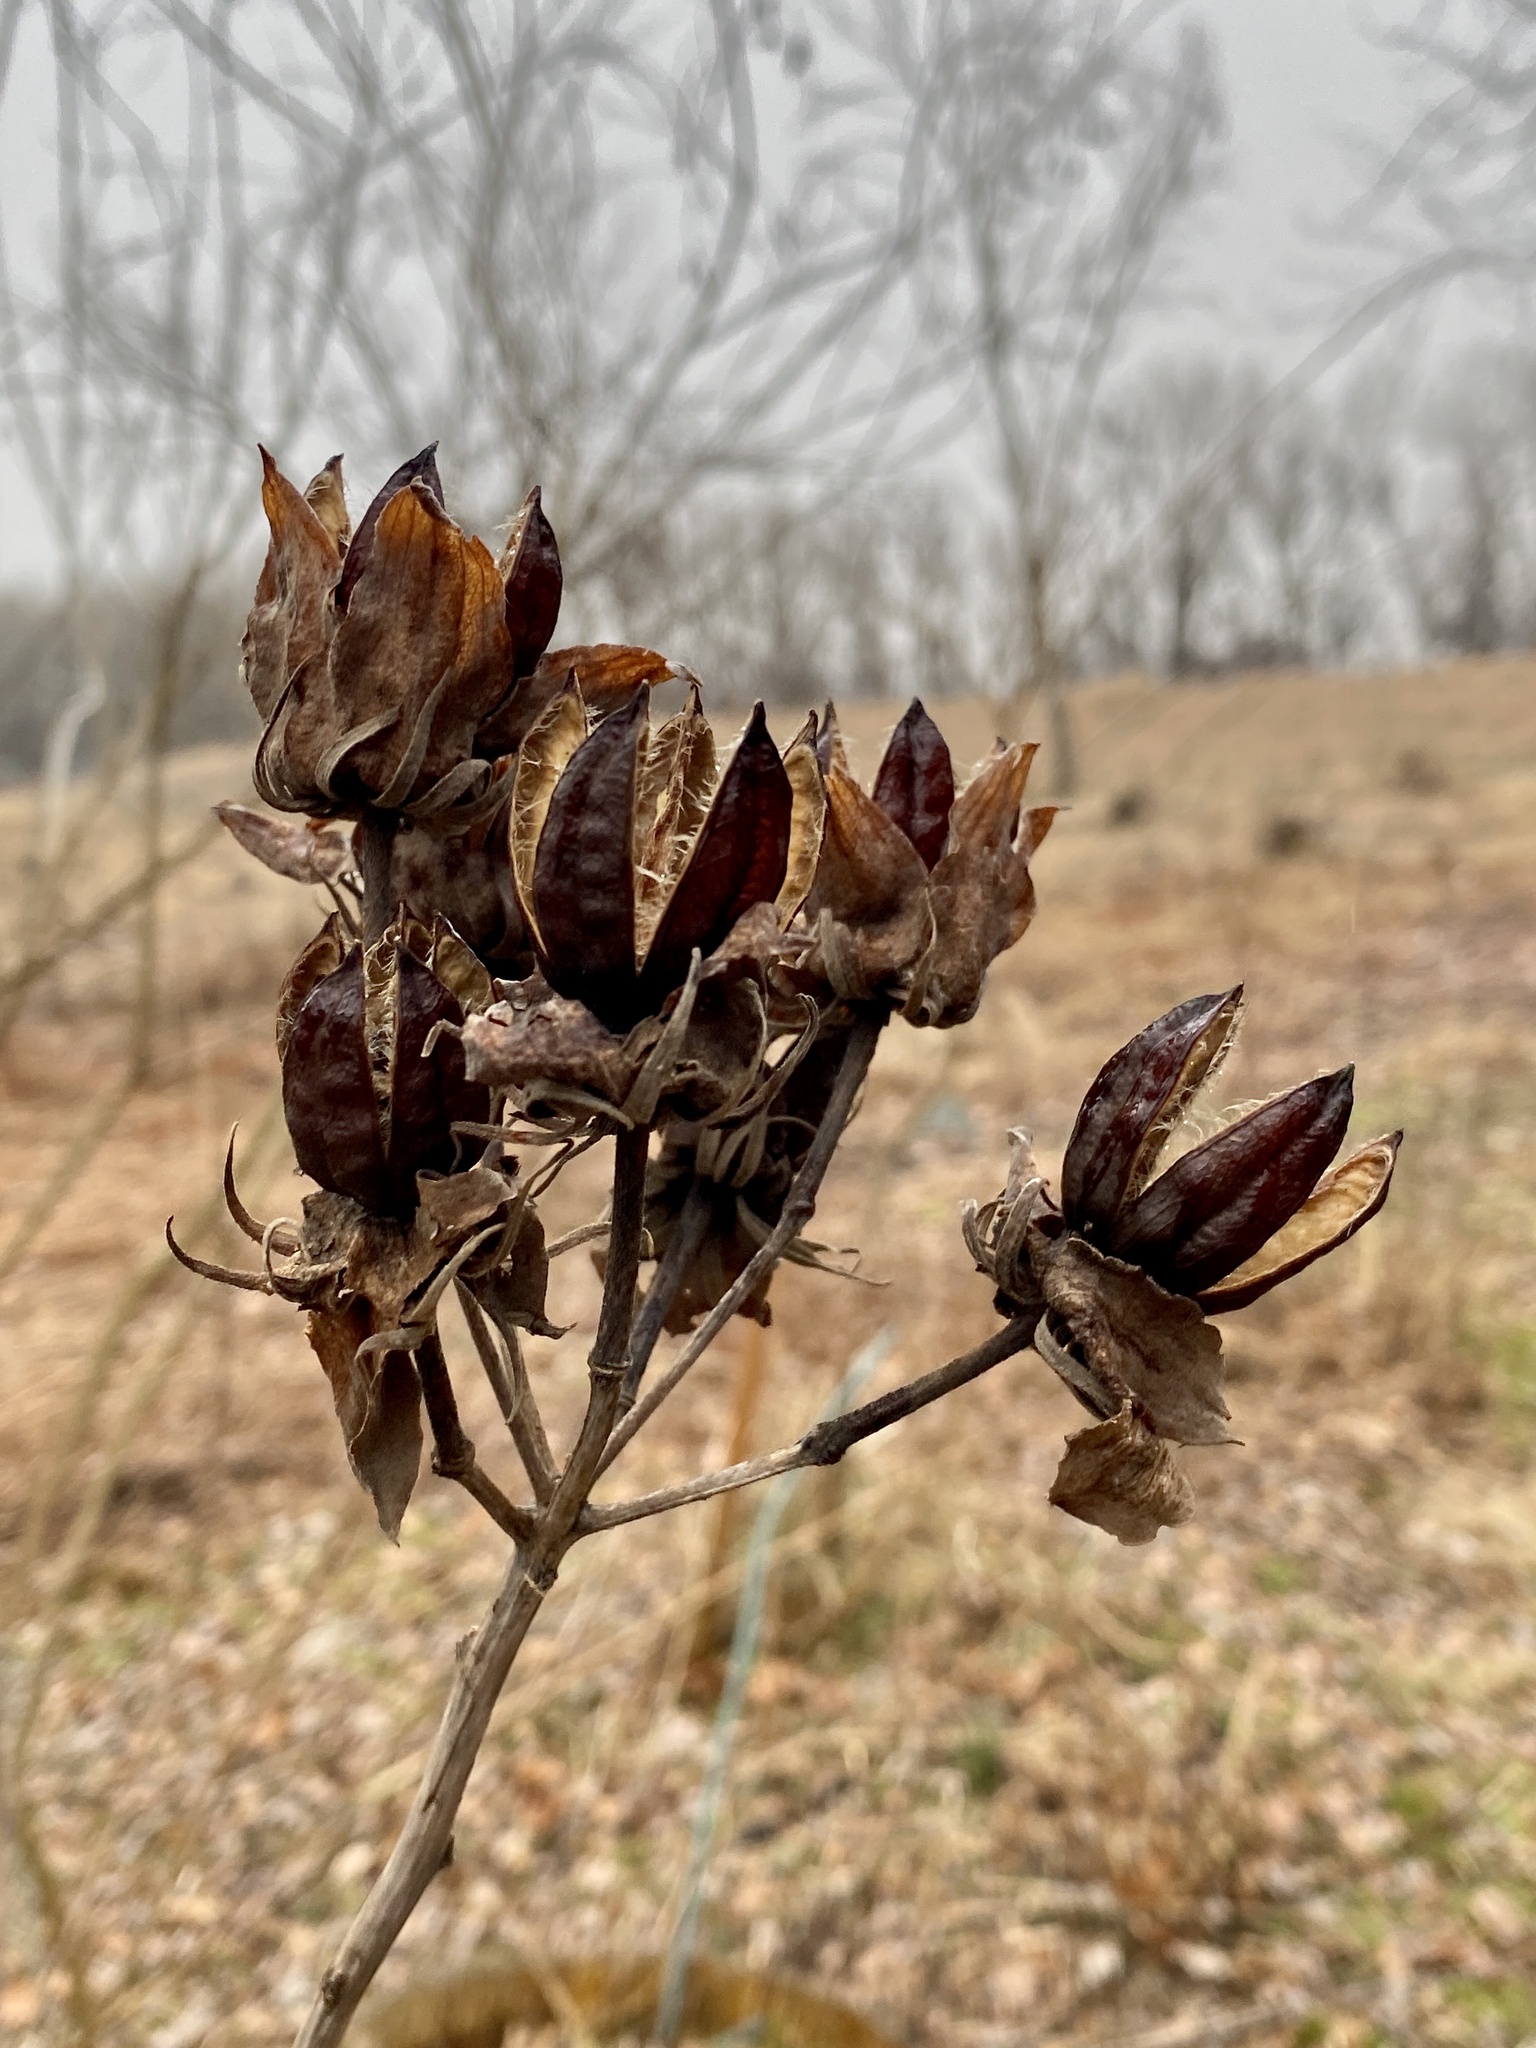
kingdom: Plantae
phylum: Tracheophyta
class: Magnoliopsida
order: Malvales
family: Malvaceae
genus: Hibiscus
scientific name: Hibiscus moscheutos
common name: Common rose-mallow
